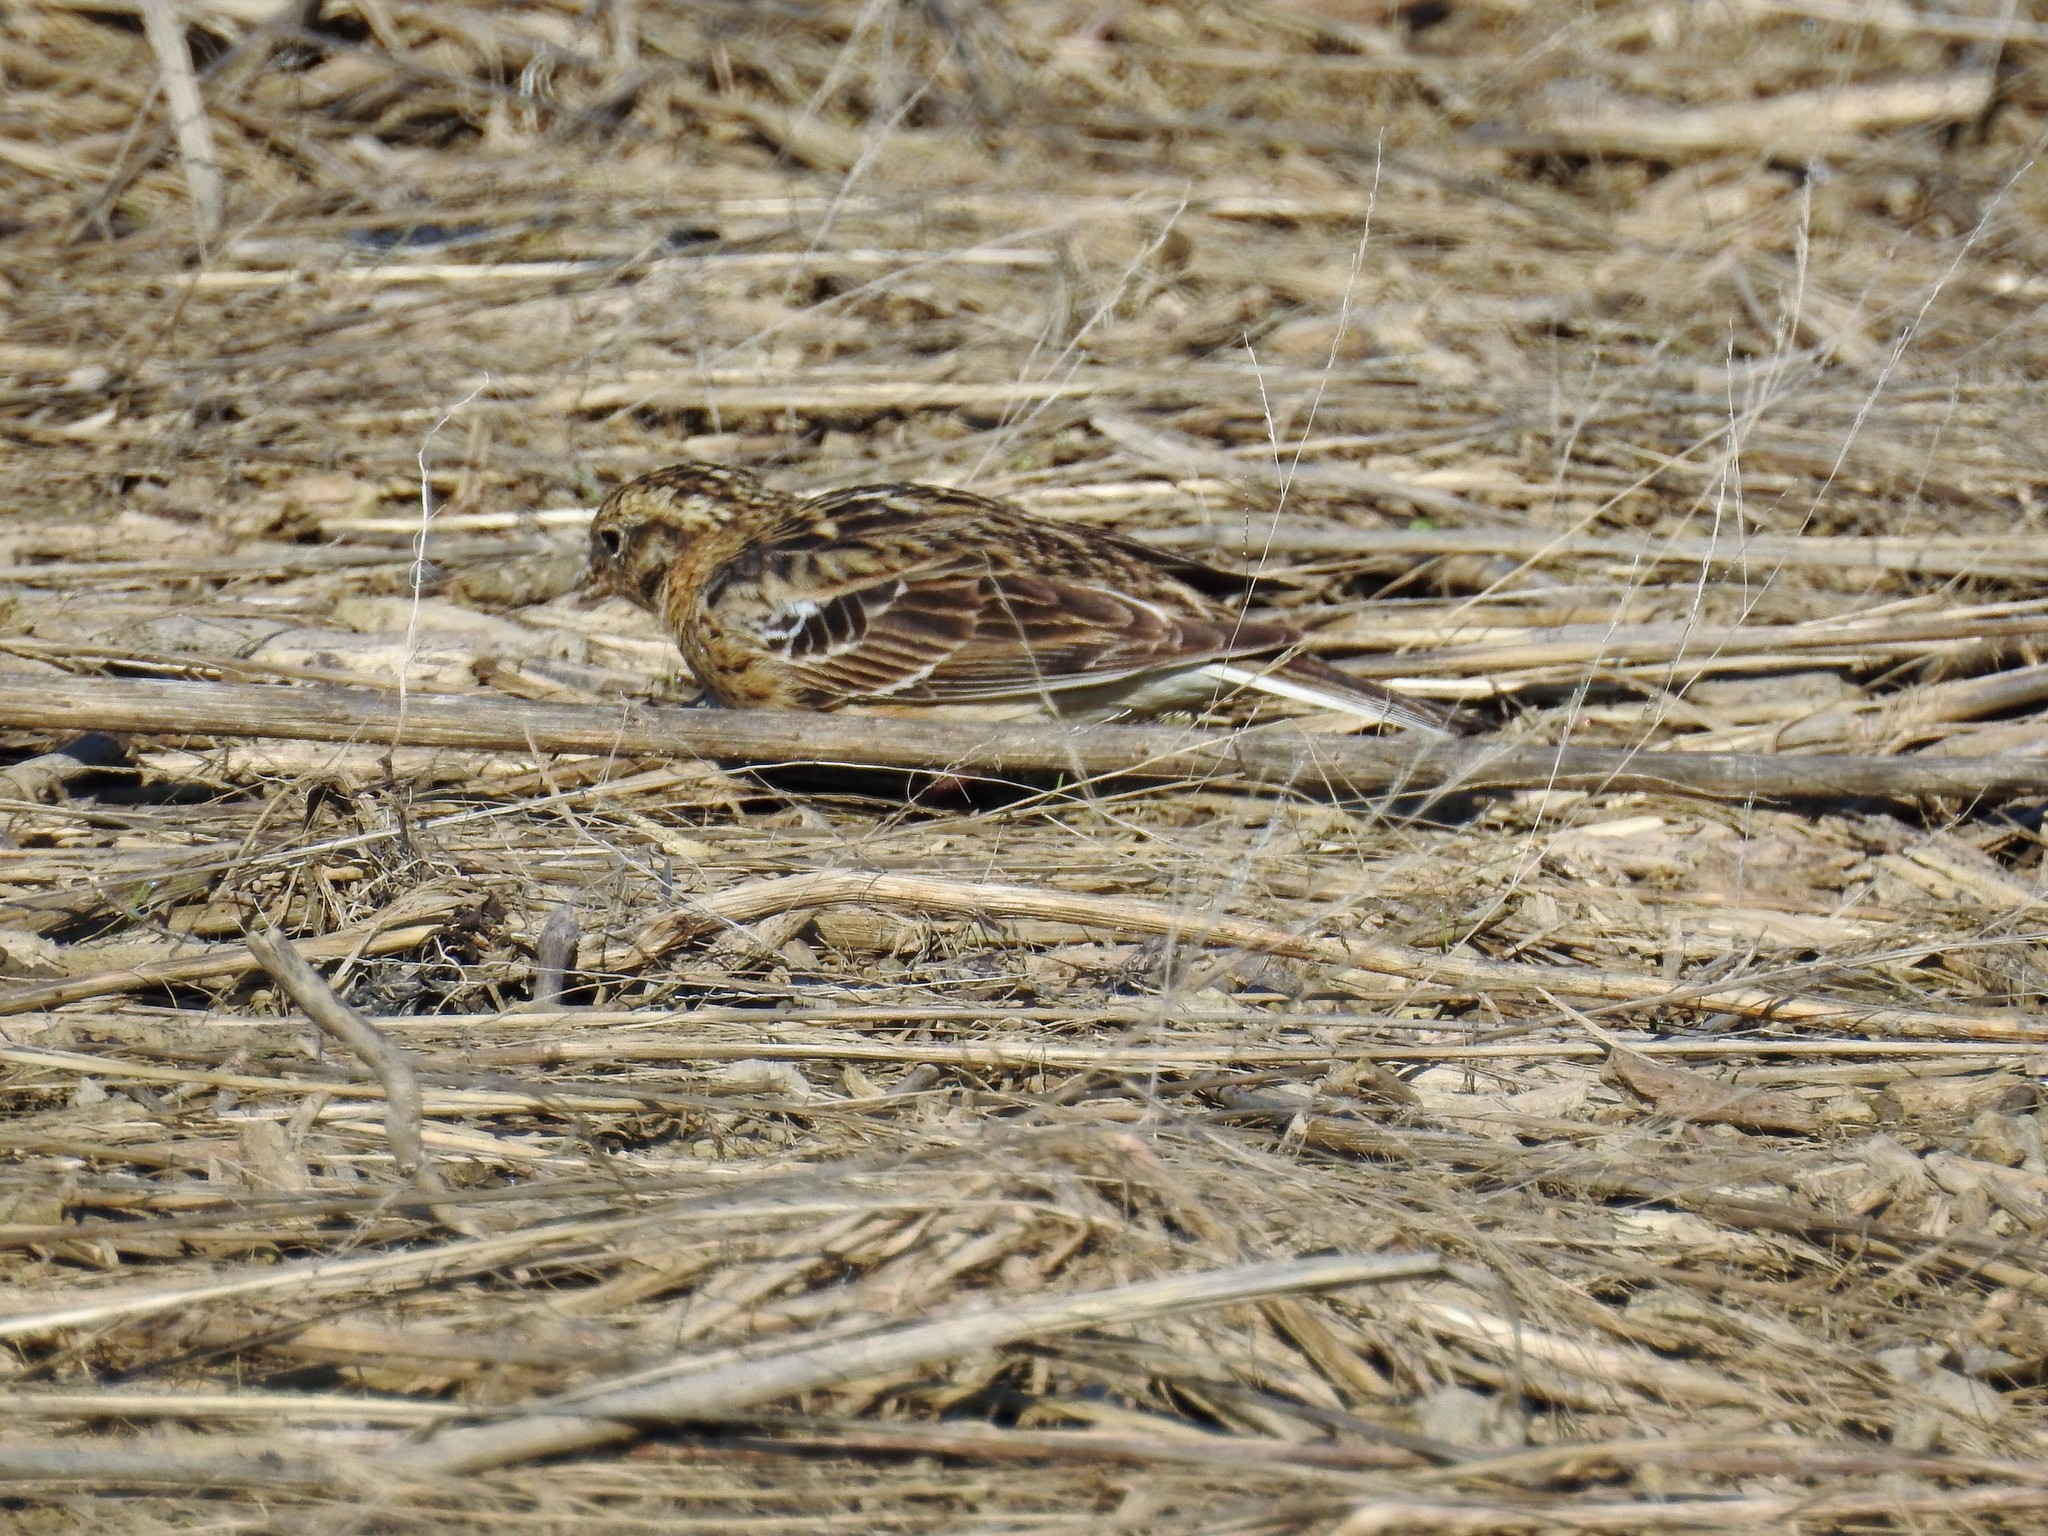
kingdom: Animalia
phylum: Chordata
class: Aves
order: Passeriformes
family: Calcariidae
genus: Calcarius
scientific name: Calcarius pictus
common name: Smith's longspur
